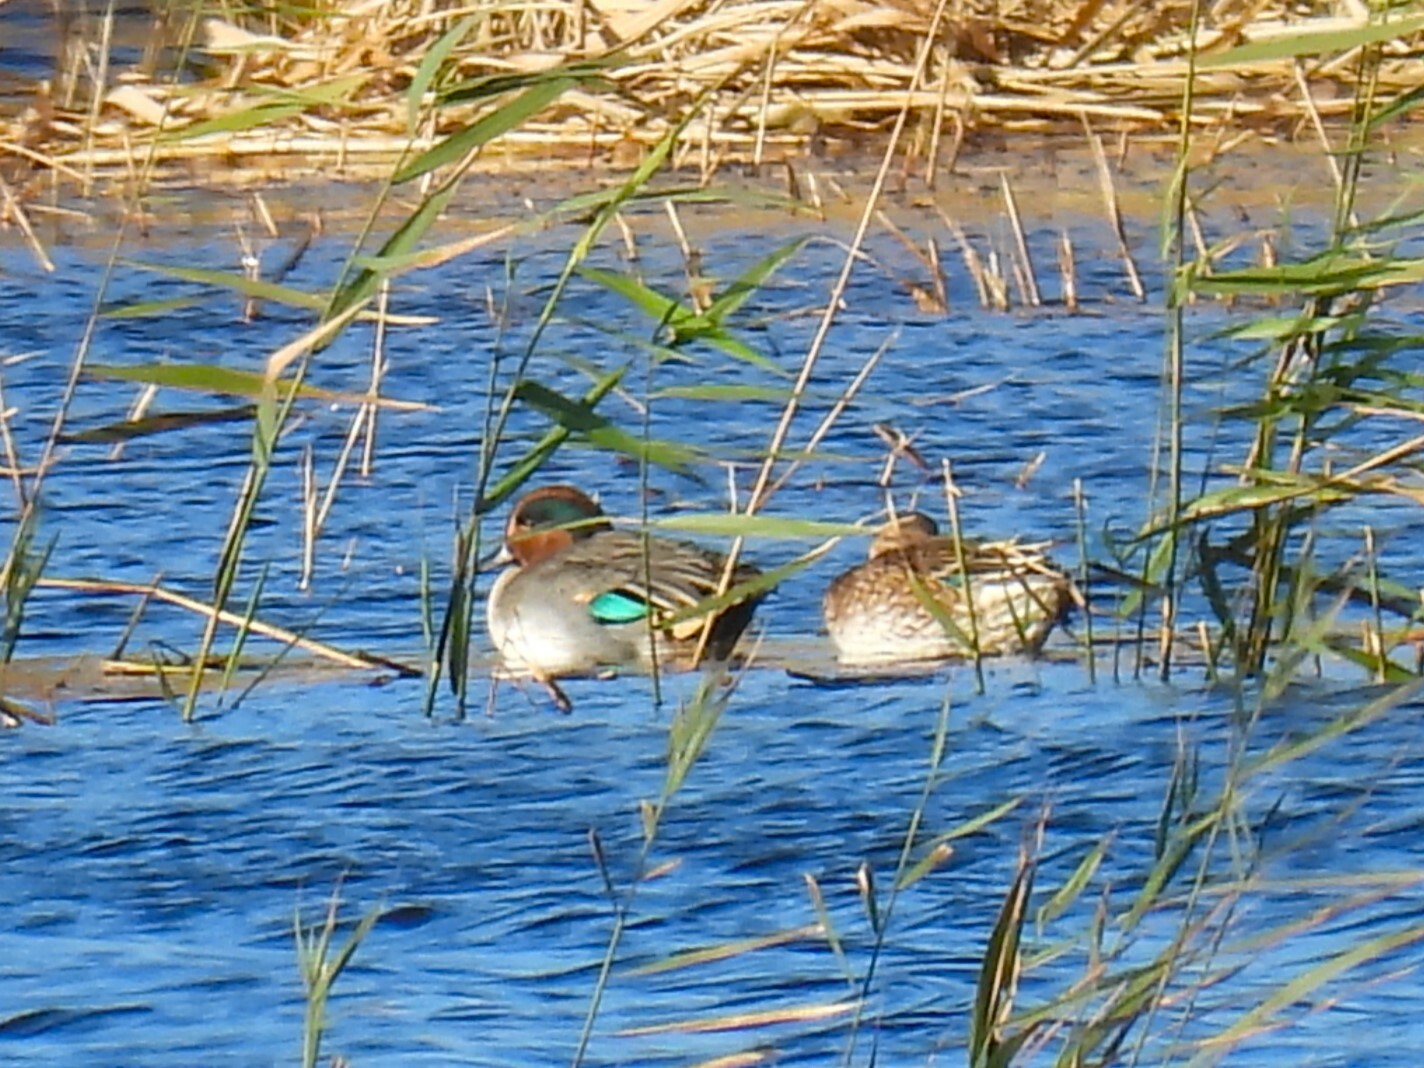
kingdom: Animalia
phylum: Chordata
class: Aves
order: Anseriformes
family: Anatidae
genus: Anas
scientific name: Anas crecca
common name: Eurasian teal
